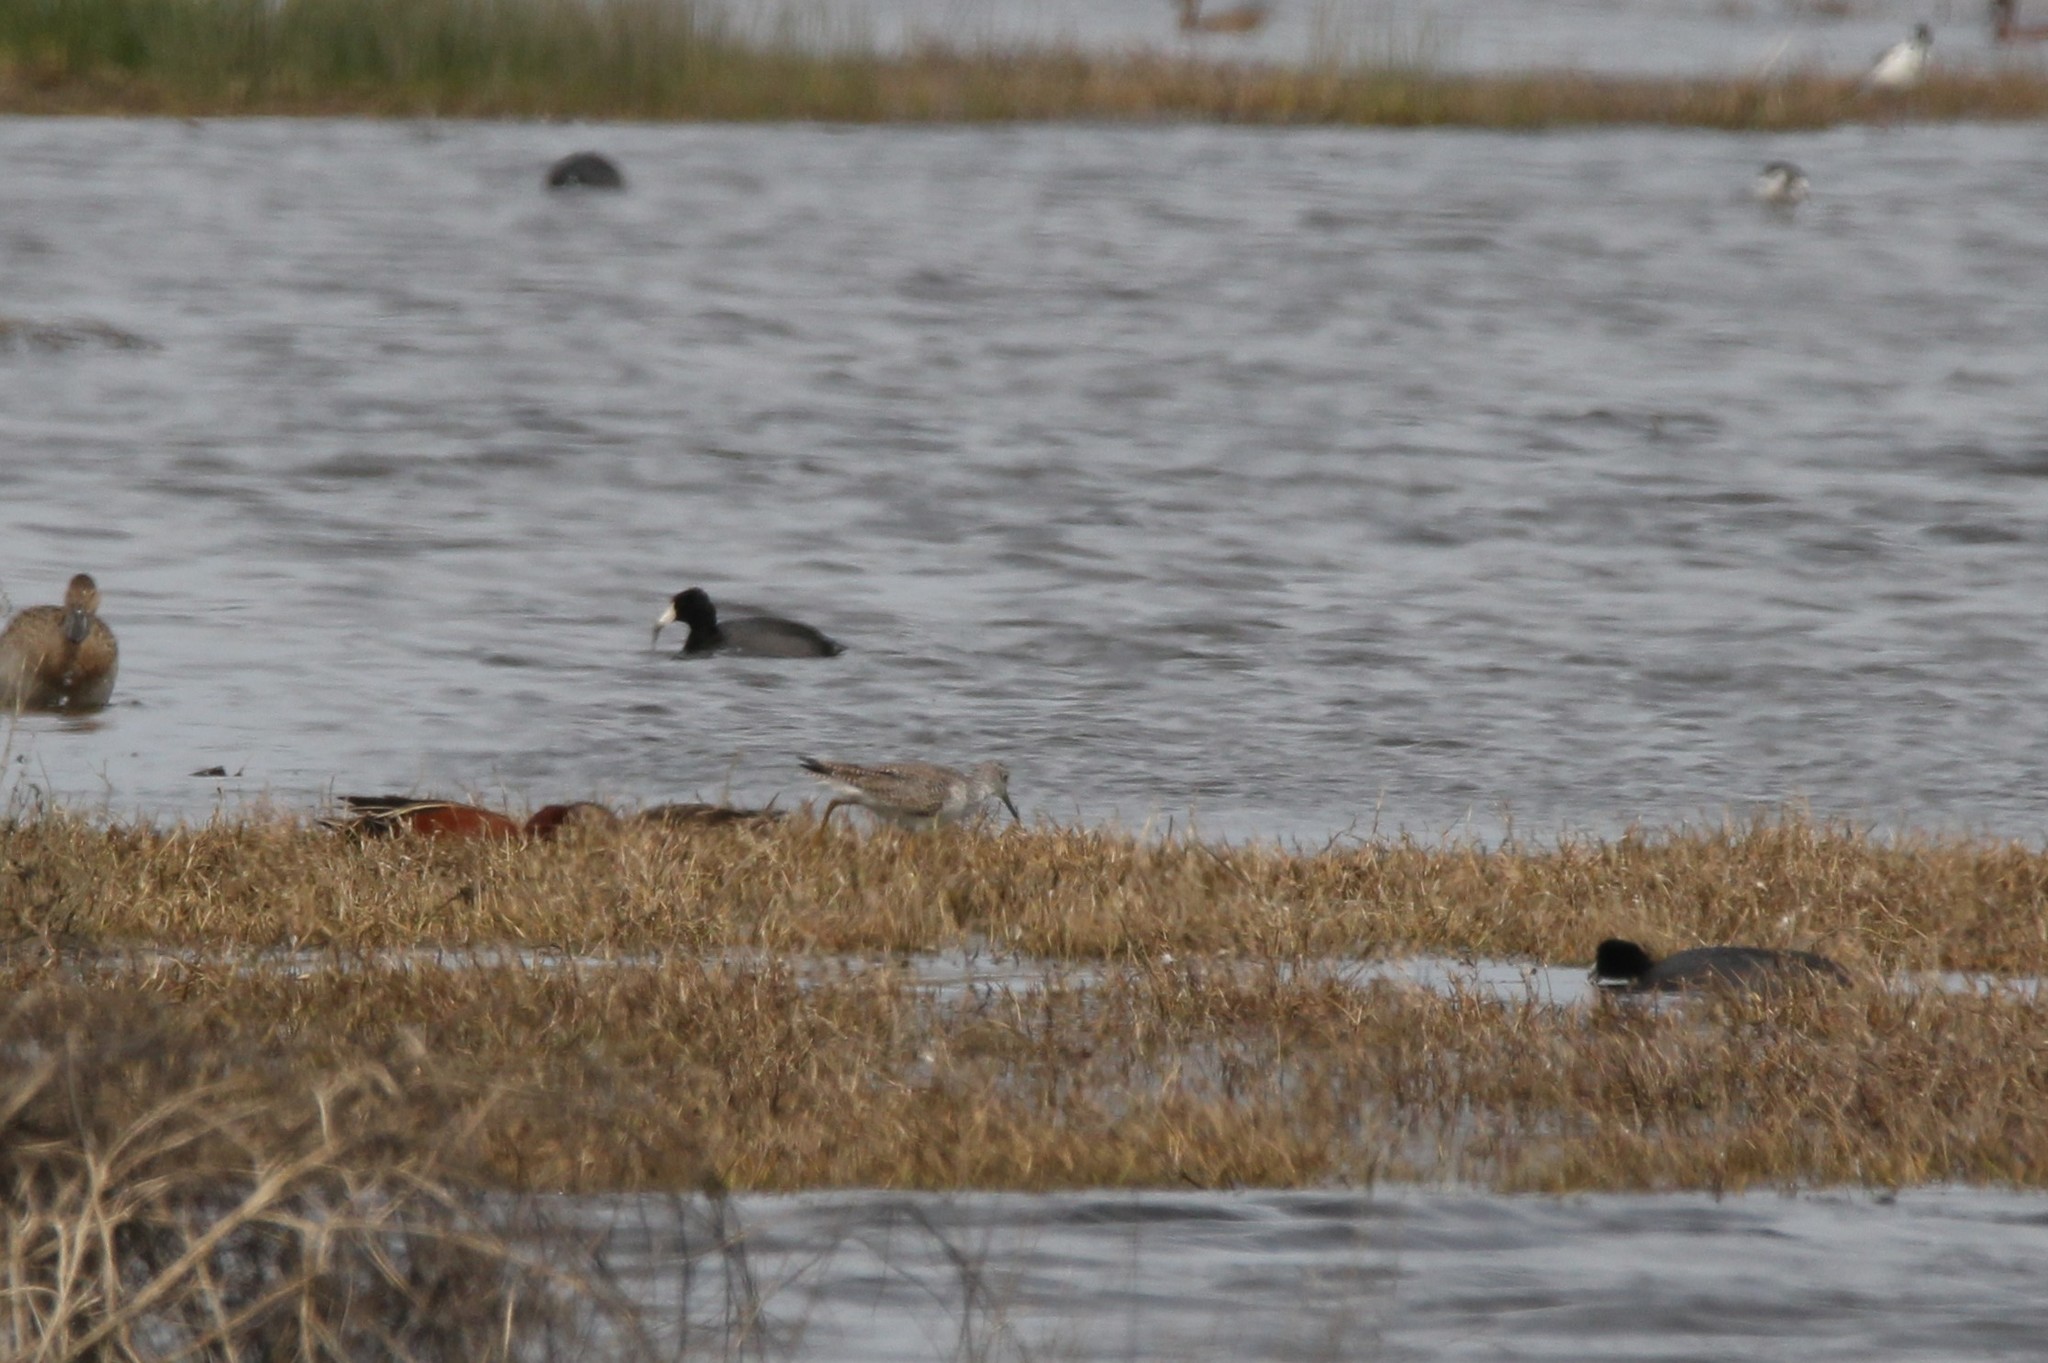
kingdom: Animalia
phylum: Chordata
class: Aves
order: Charadriiformes
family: Scolopacidae
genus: Tringa
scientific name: Tringa melanoleuca
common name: Greater yellowlegs
